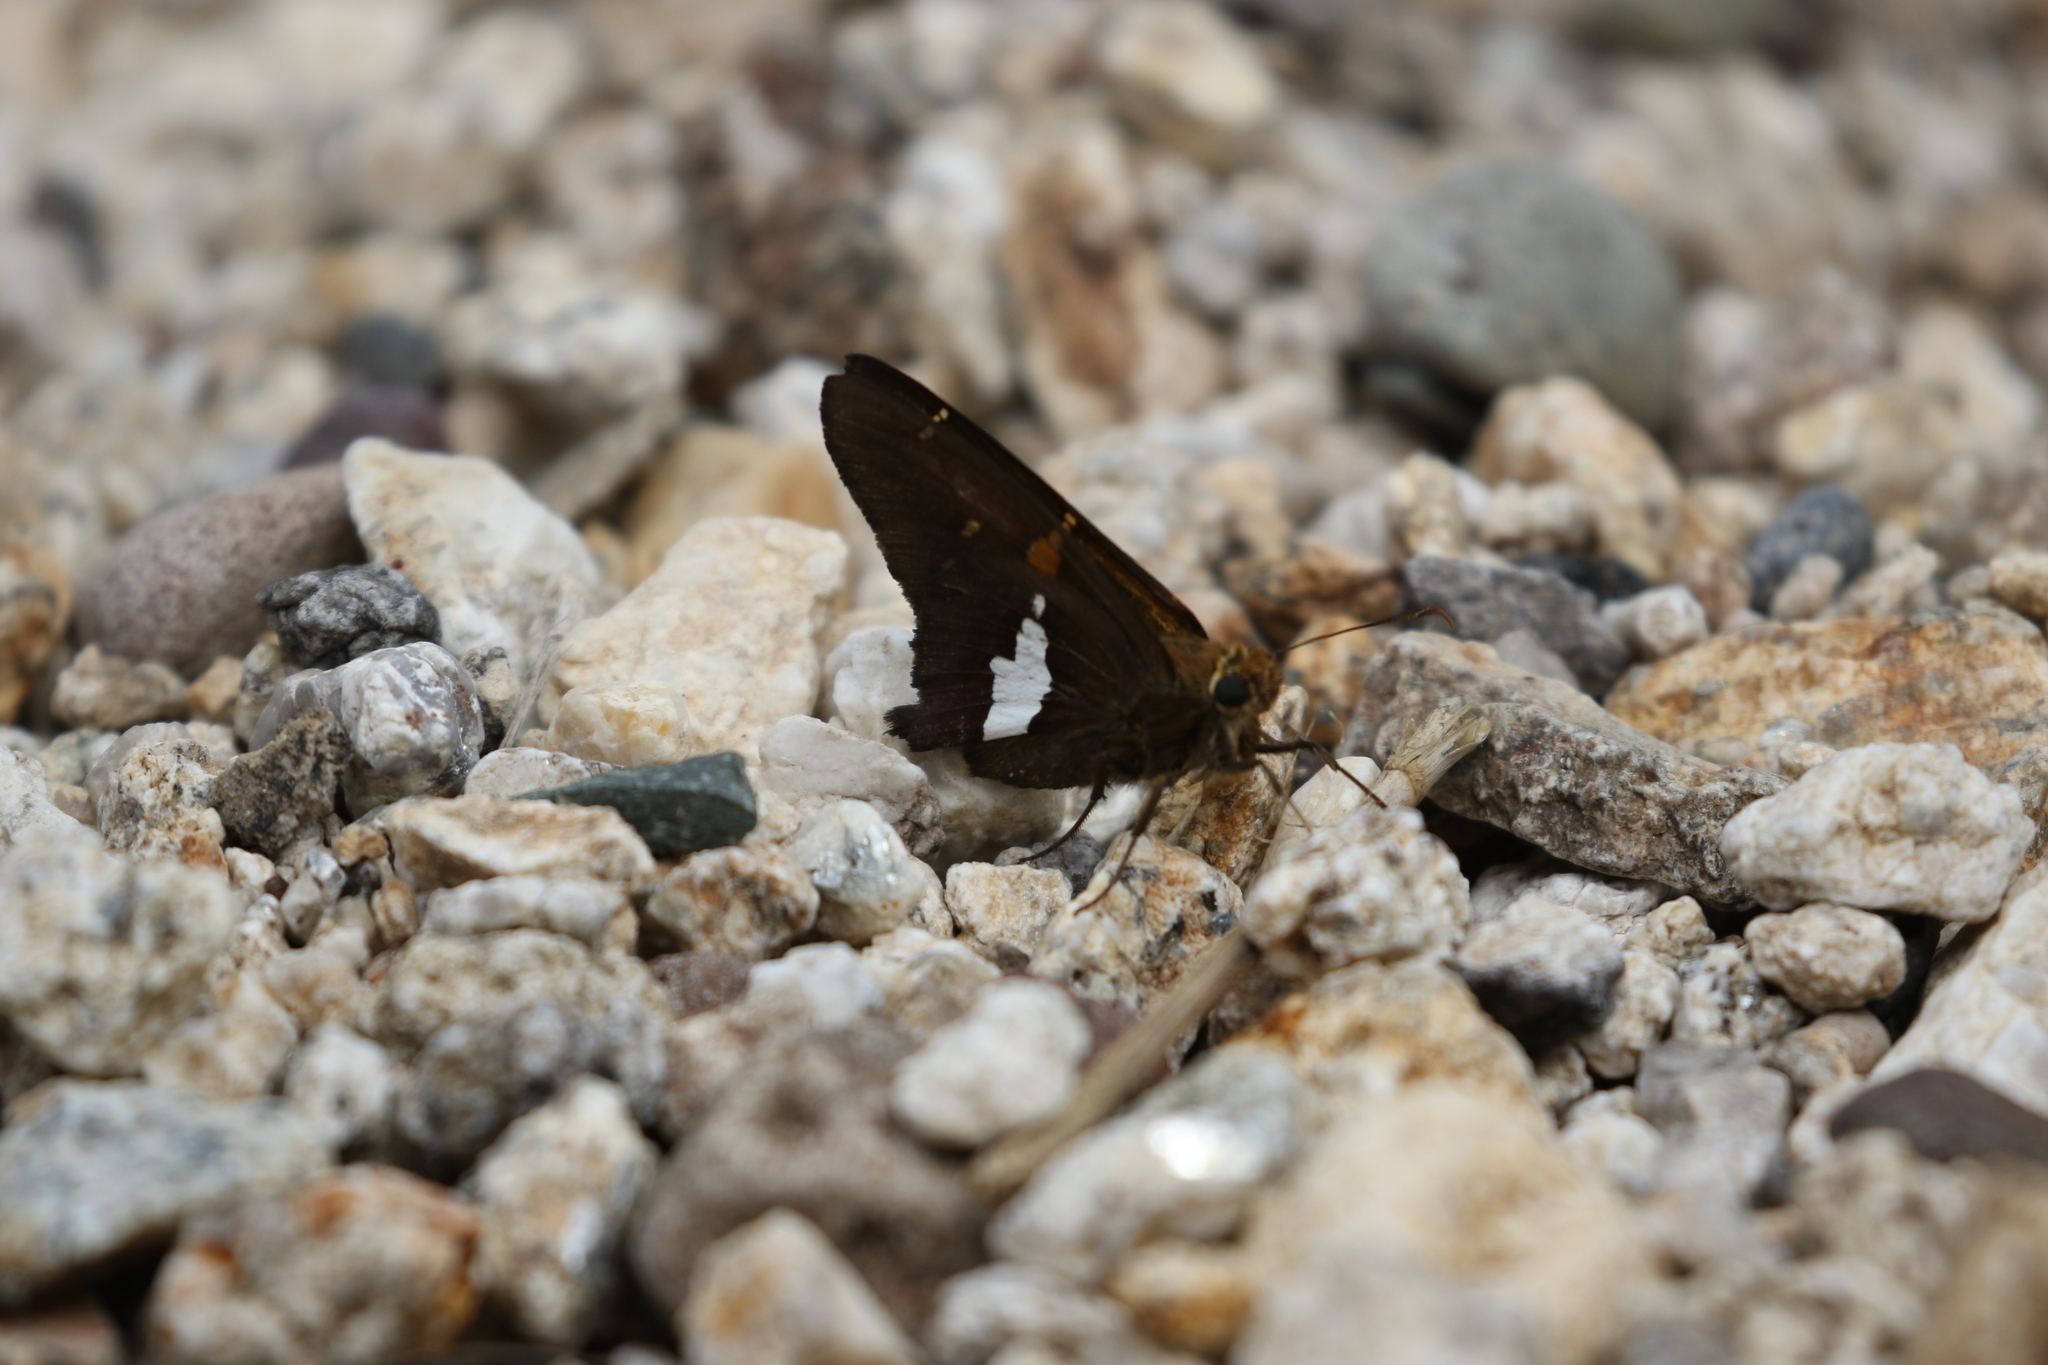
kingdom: Animalia
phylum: Arthropoda
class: Insecta
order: Lepidoptera
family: Hesperiidae
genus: Epargyreus
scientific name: Epargyreus clarus
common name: Silver-spotted skipper
